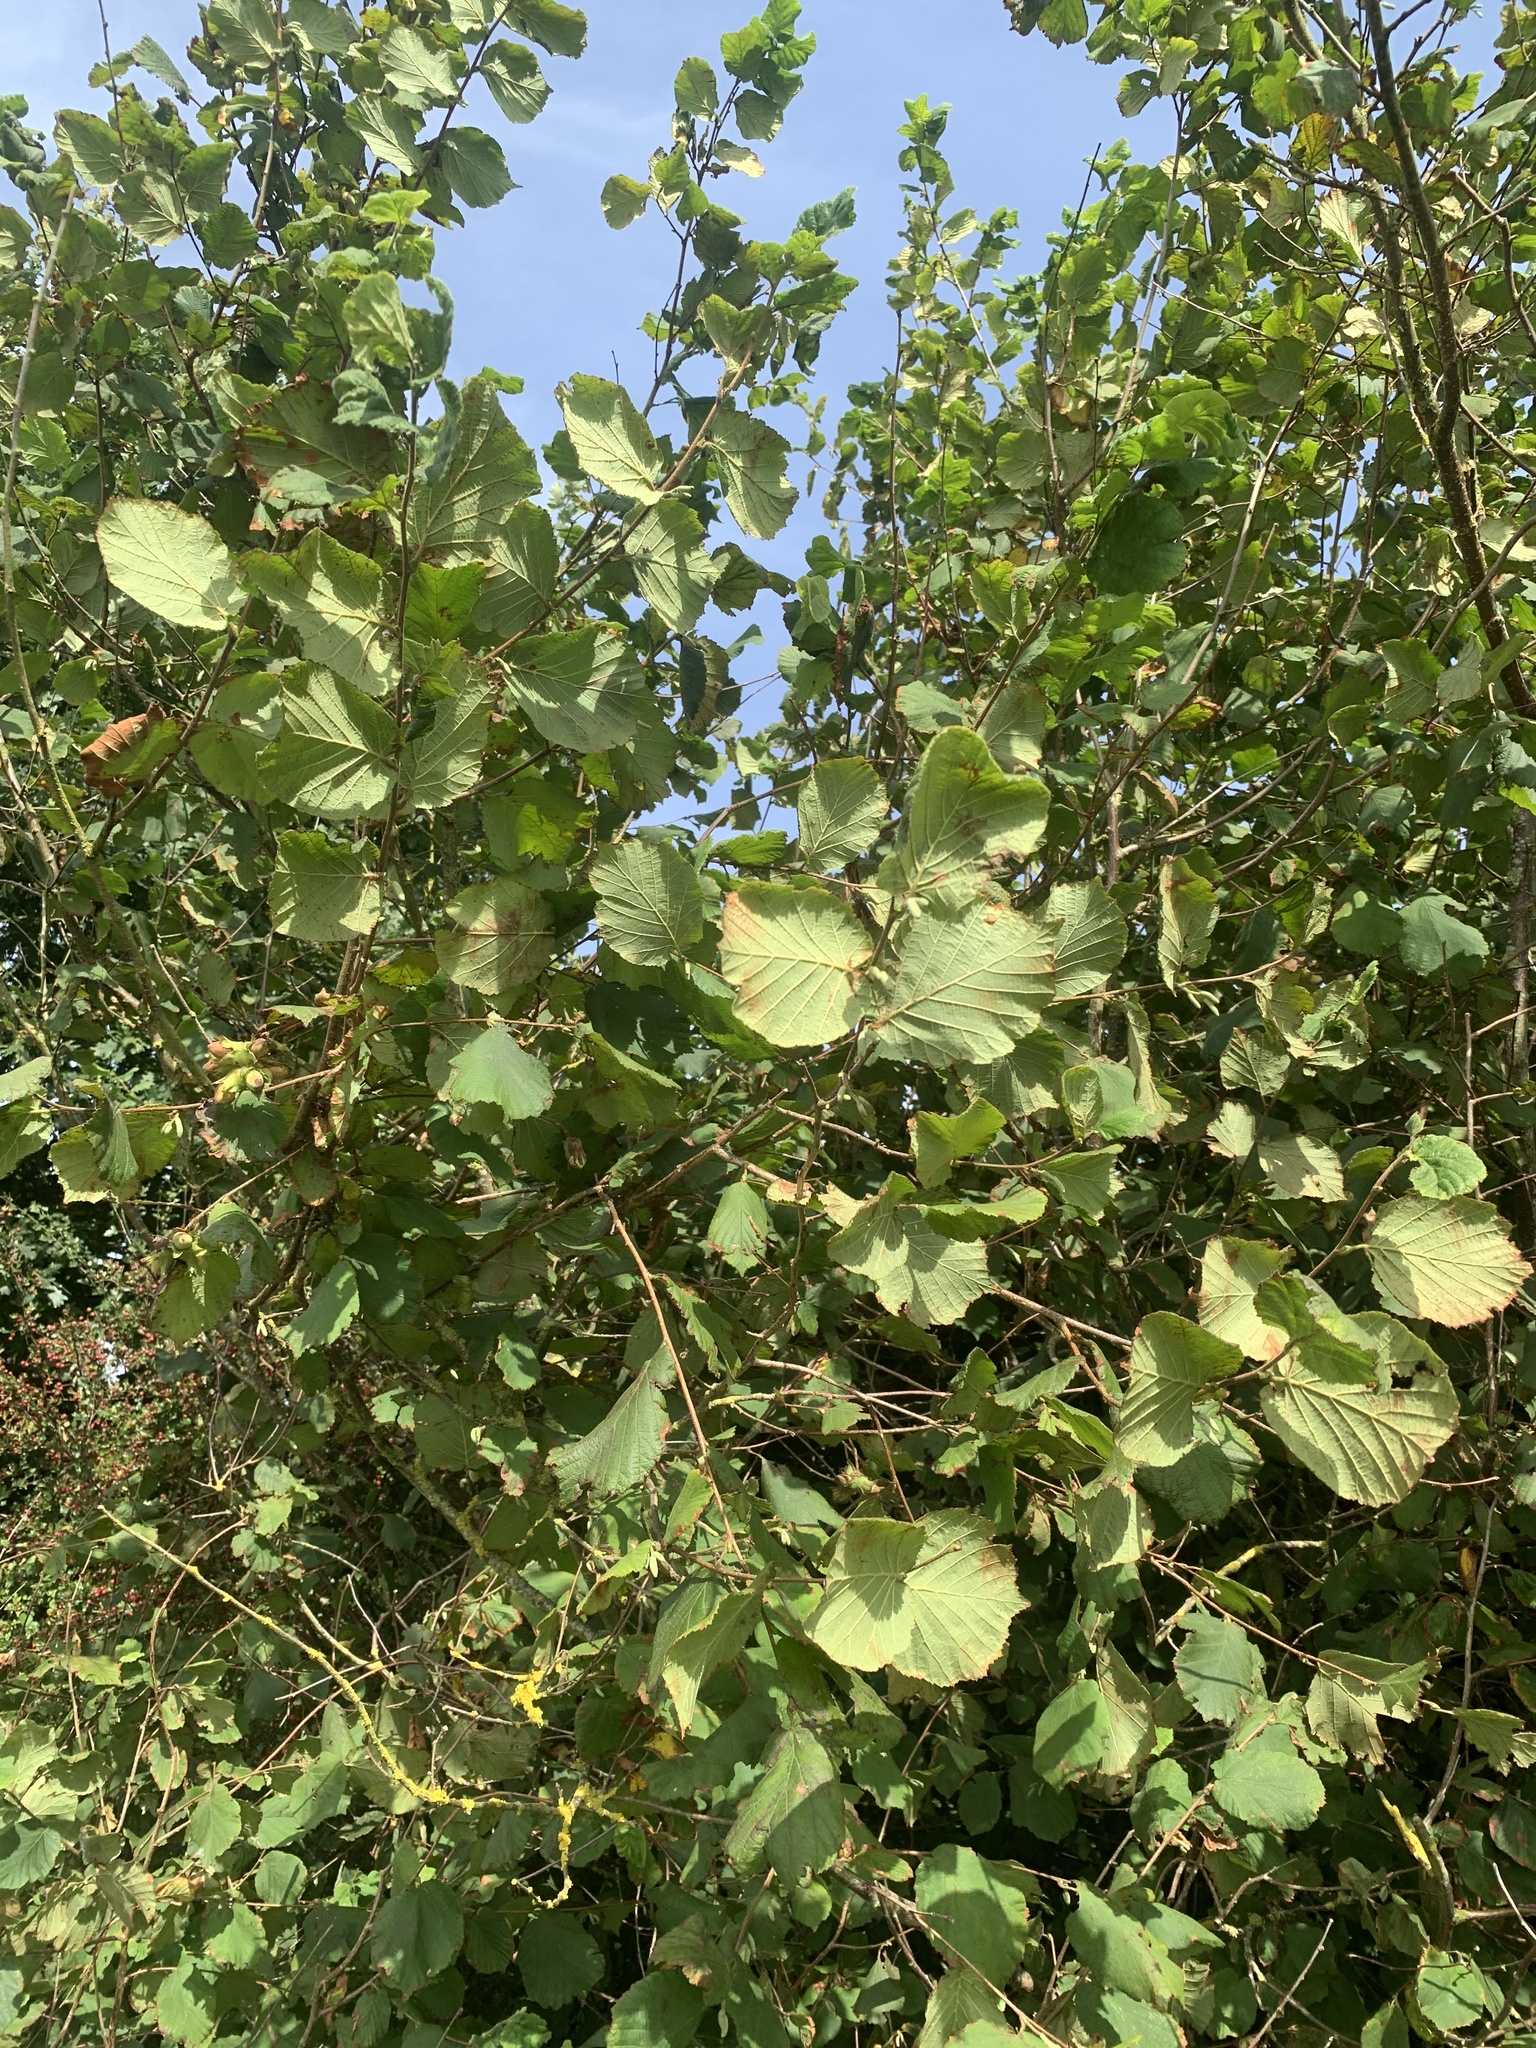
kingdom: Plantae
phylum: Tracheophyta
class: Magnoliopsida
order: Fagales
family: Betulaceae
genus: Corylus
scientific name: Corylus avellana
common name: European hazel
